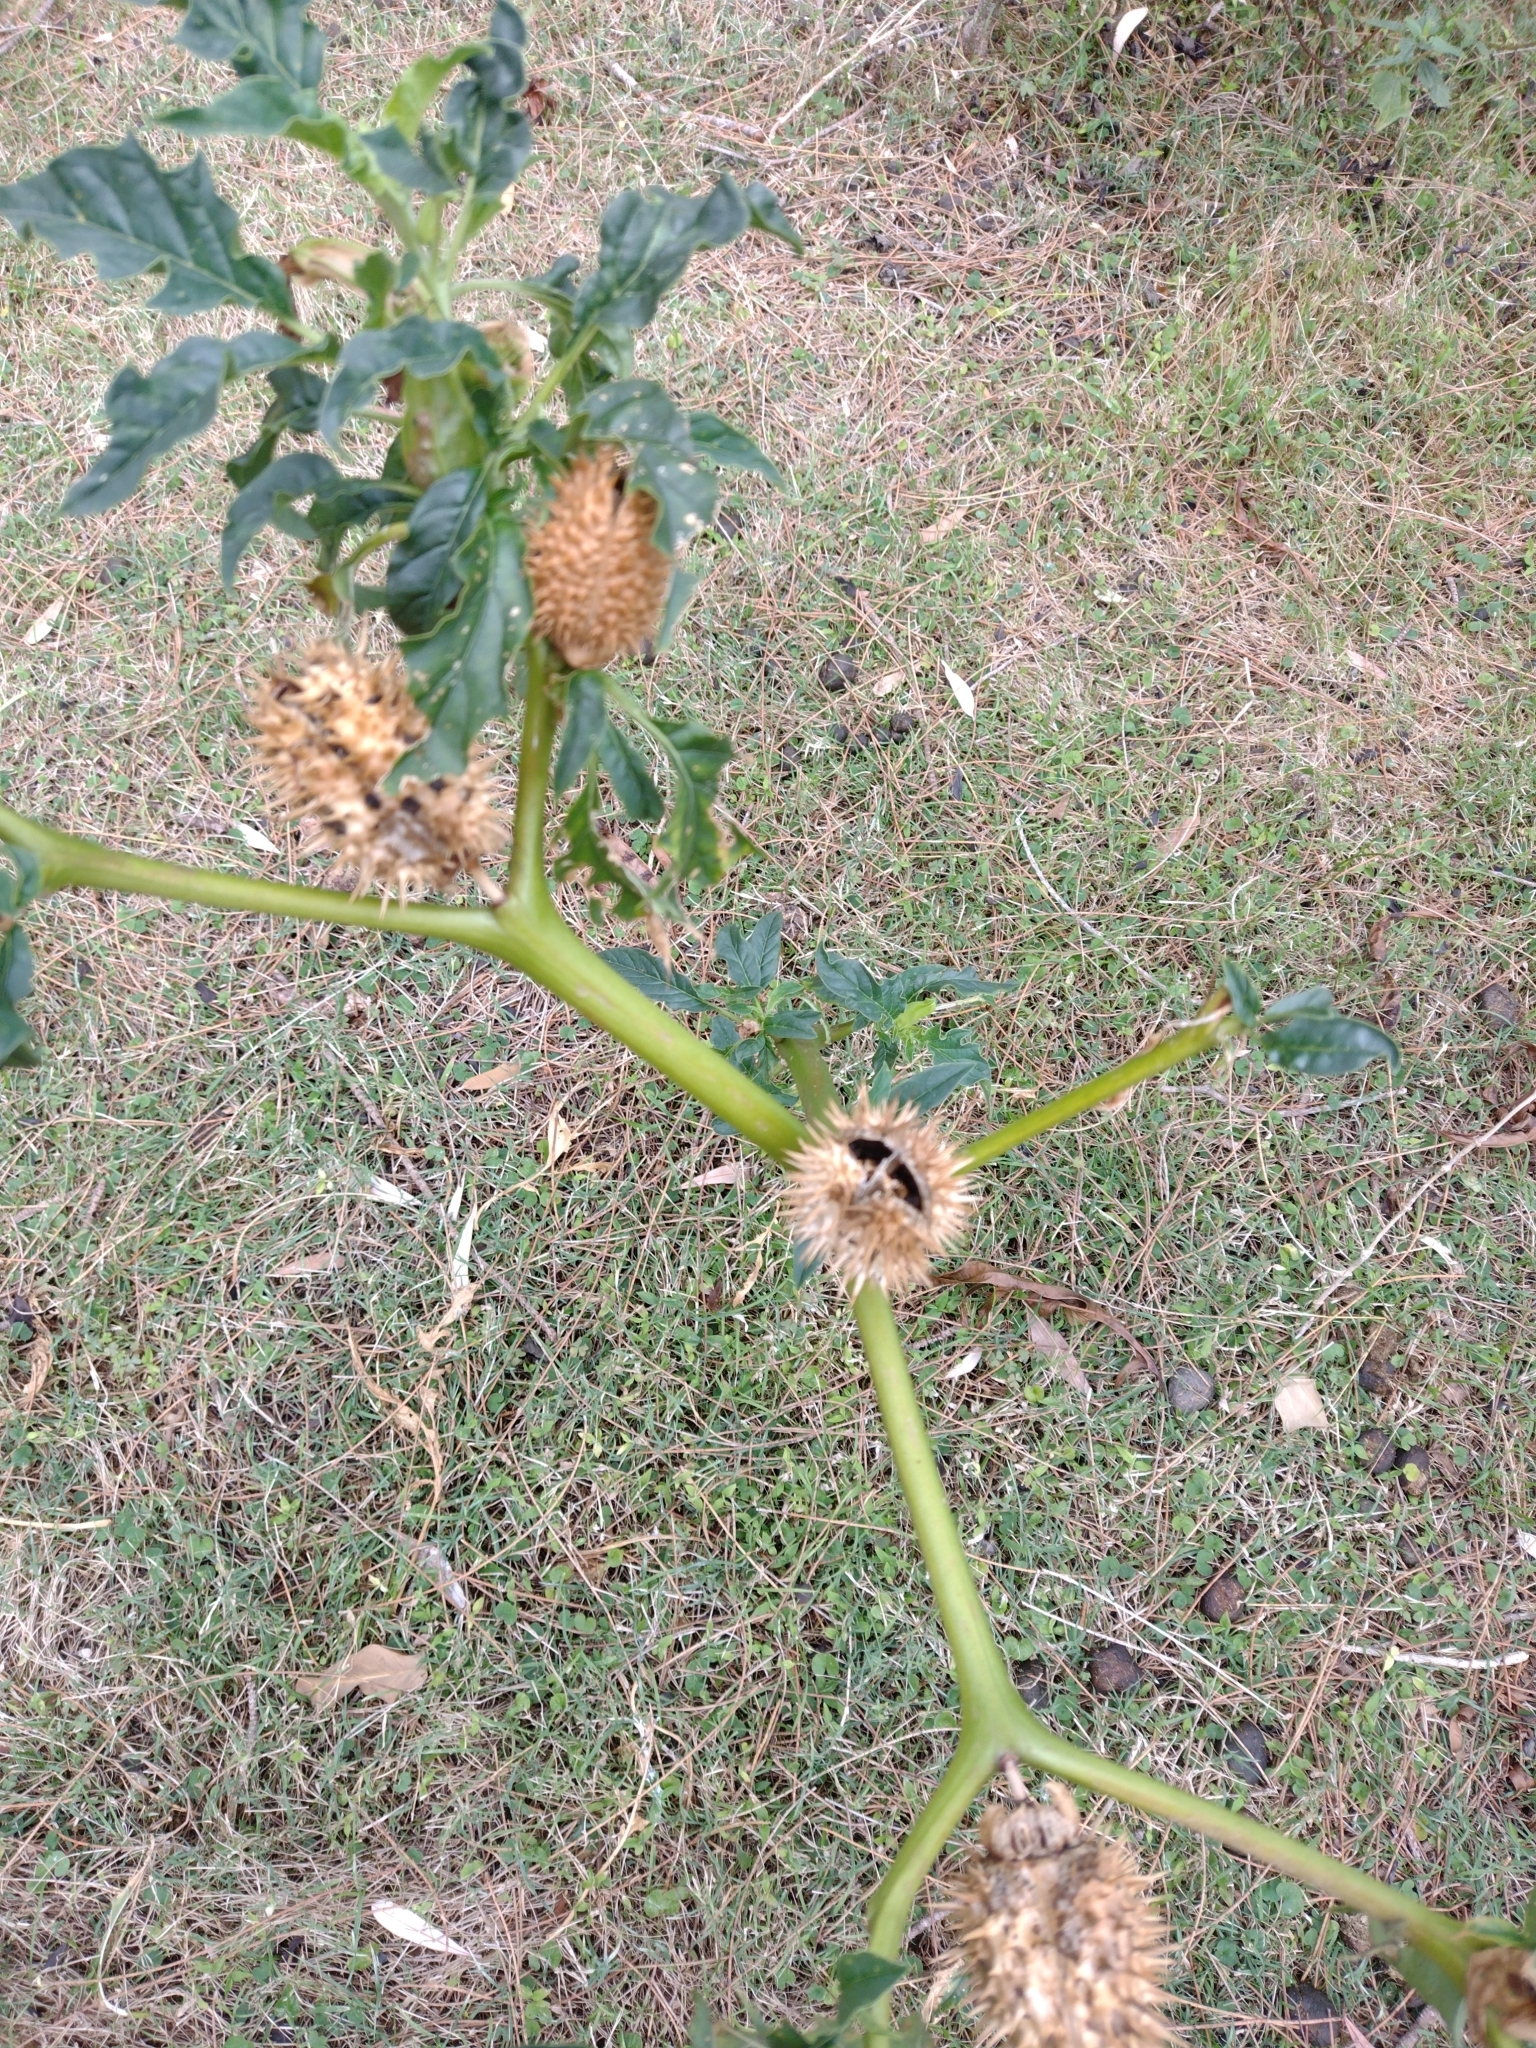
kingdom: Plantae
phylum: Tracheophyta
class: Magnoliopsida
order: Solanales
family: Solanaceae
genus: Datura
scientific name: Datura stramonium
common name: Thorn-apple
